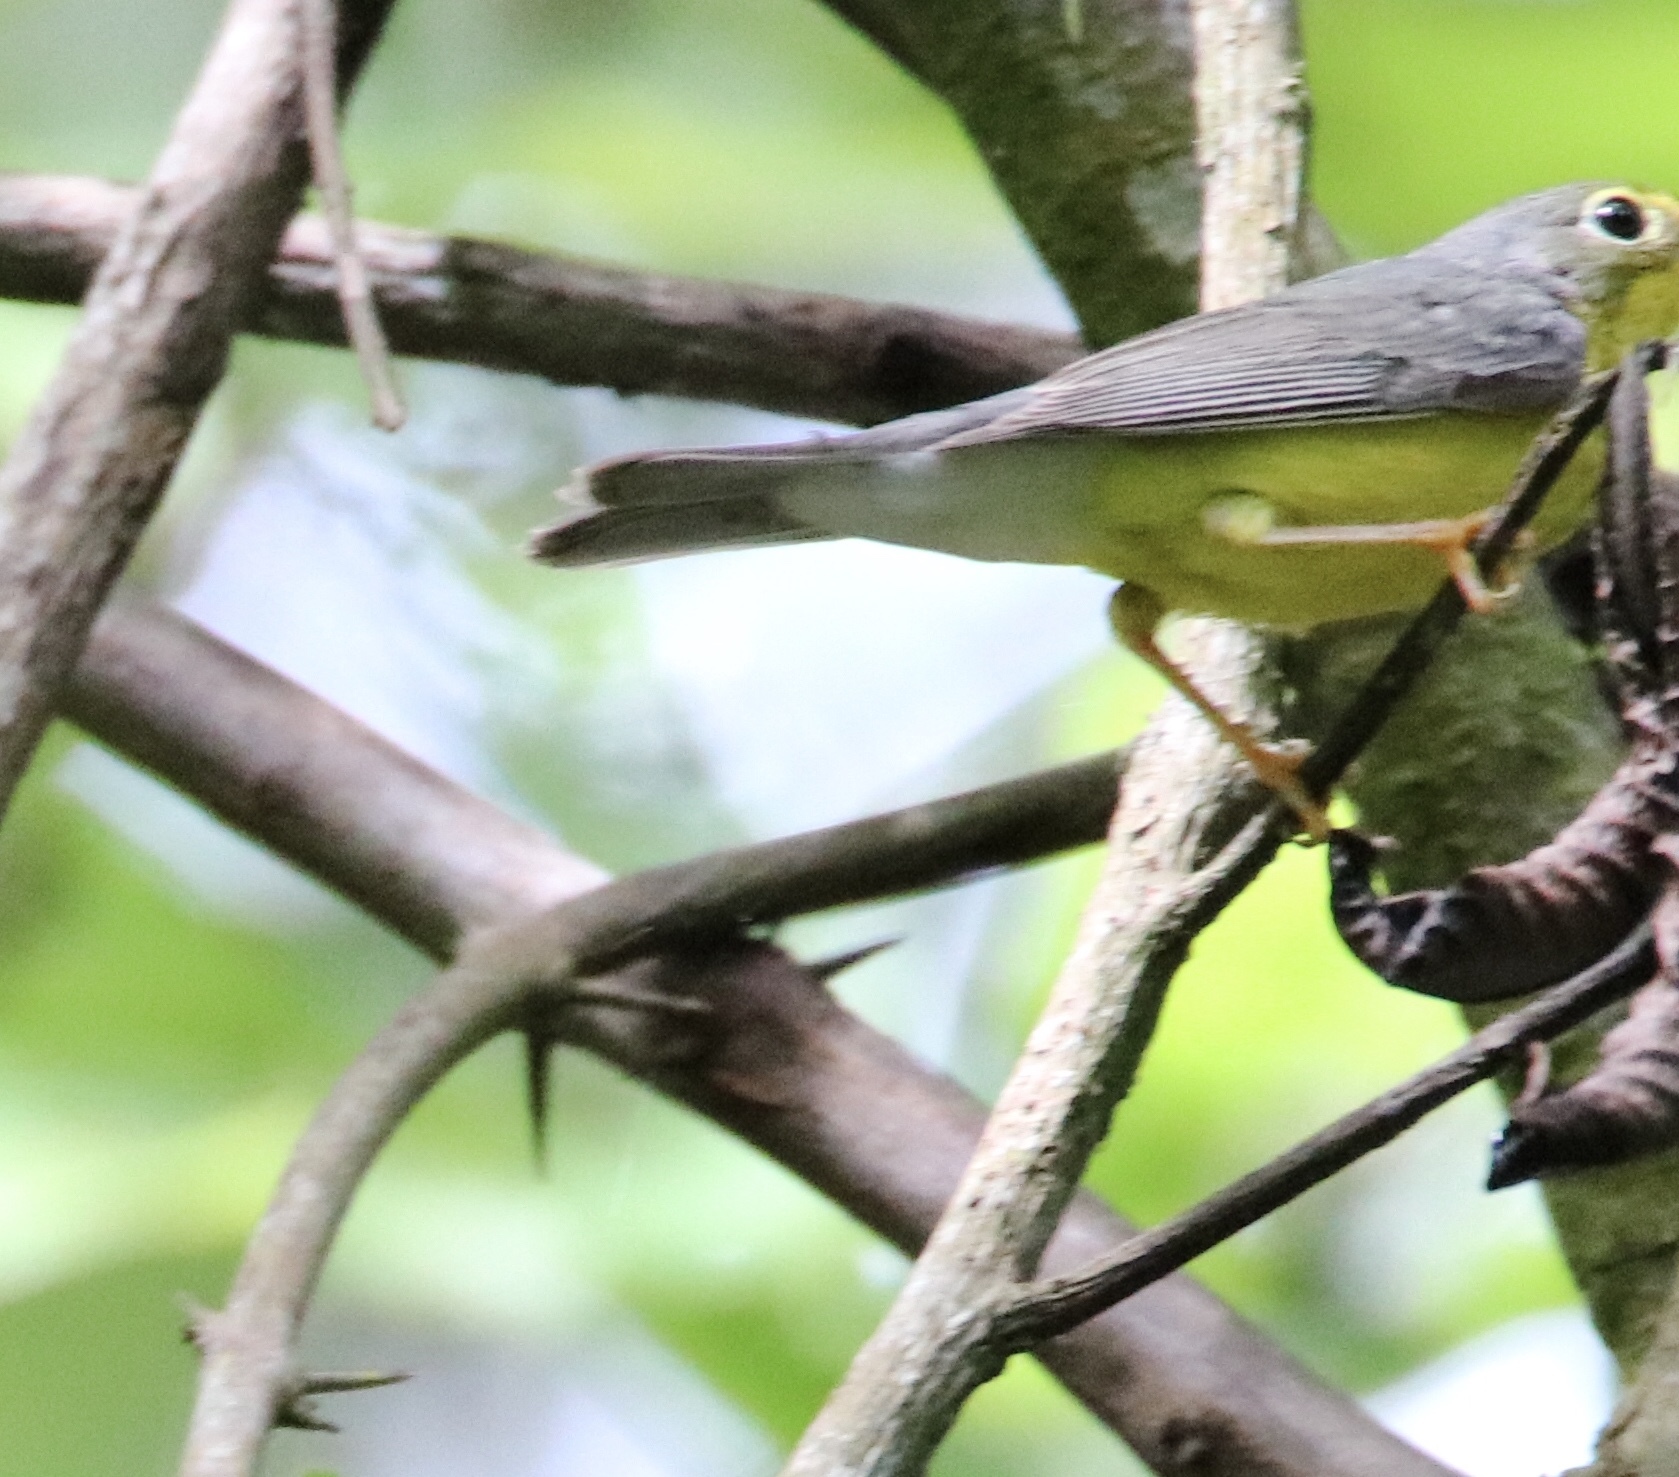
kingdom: Animalia
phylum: Chordata
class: Aves
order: Passeriformes
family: Parulidae
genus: Cardellina
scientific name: Cardellina canadensis
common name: Canada warbler
